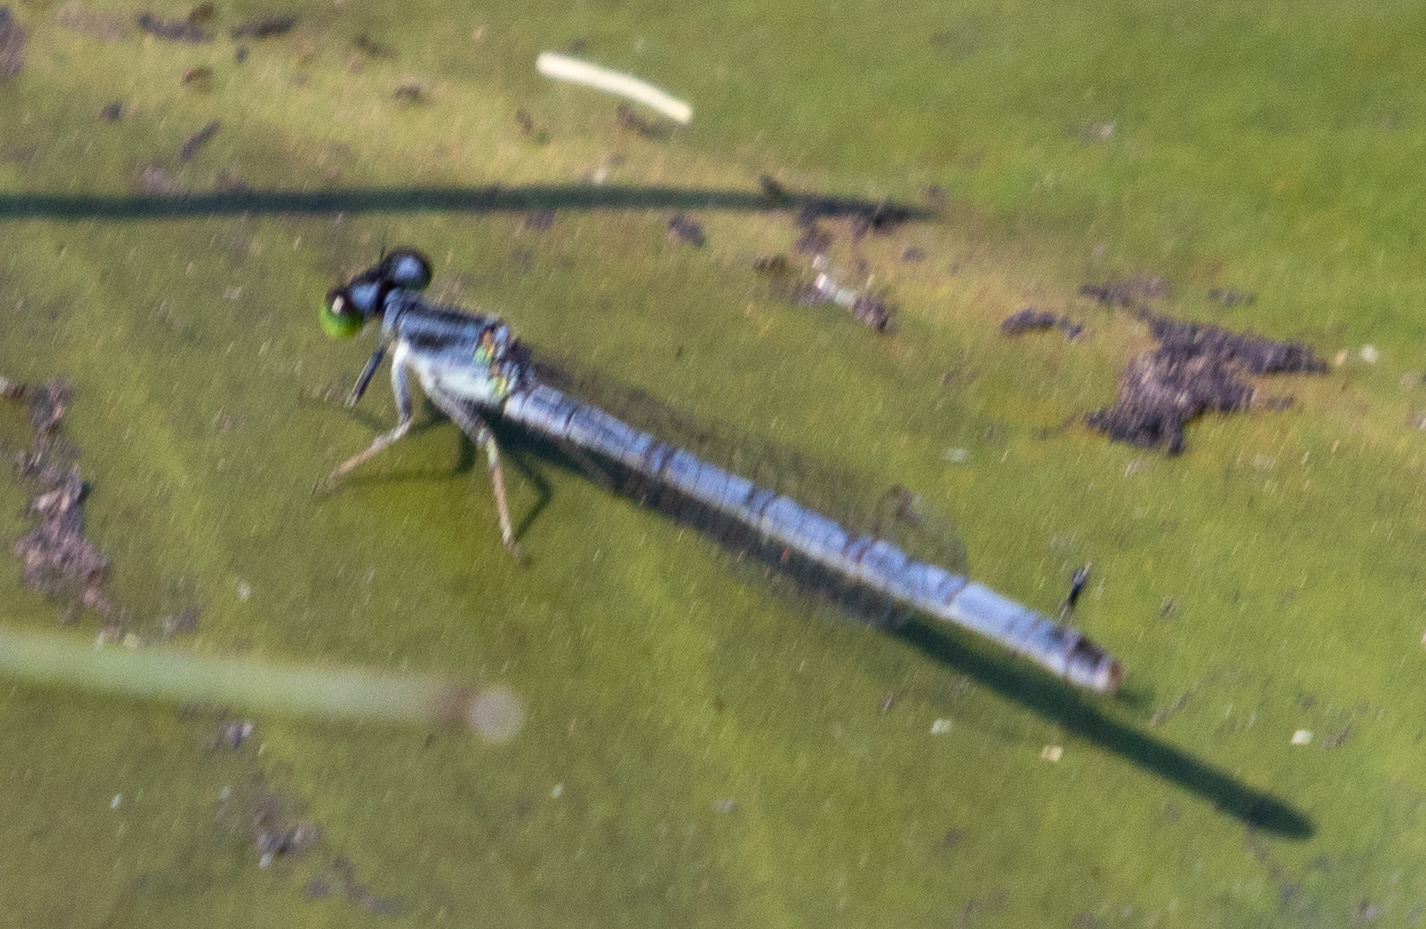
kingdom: Animalia
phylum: Arthropoda
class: Insecta
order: Odonata
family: Coenagrionidae
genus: Ischnura
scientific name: Ischnura verticalis
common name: Eastern forktail
